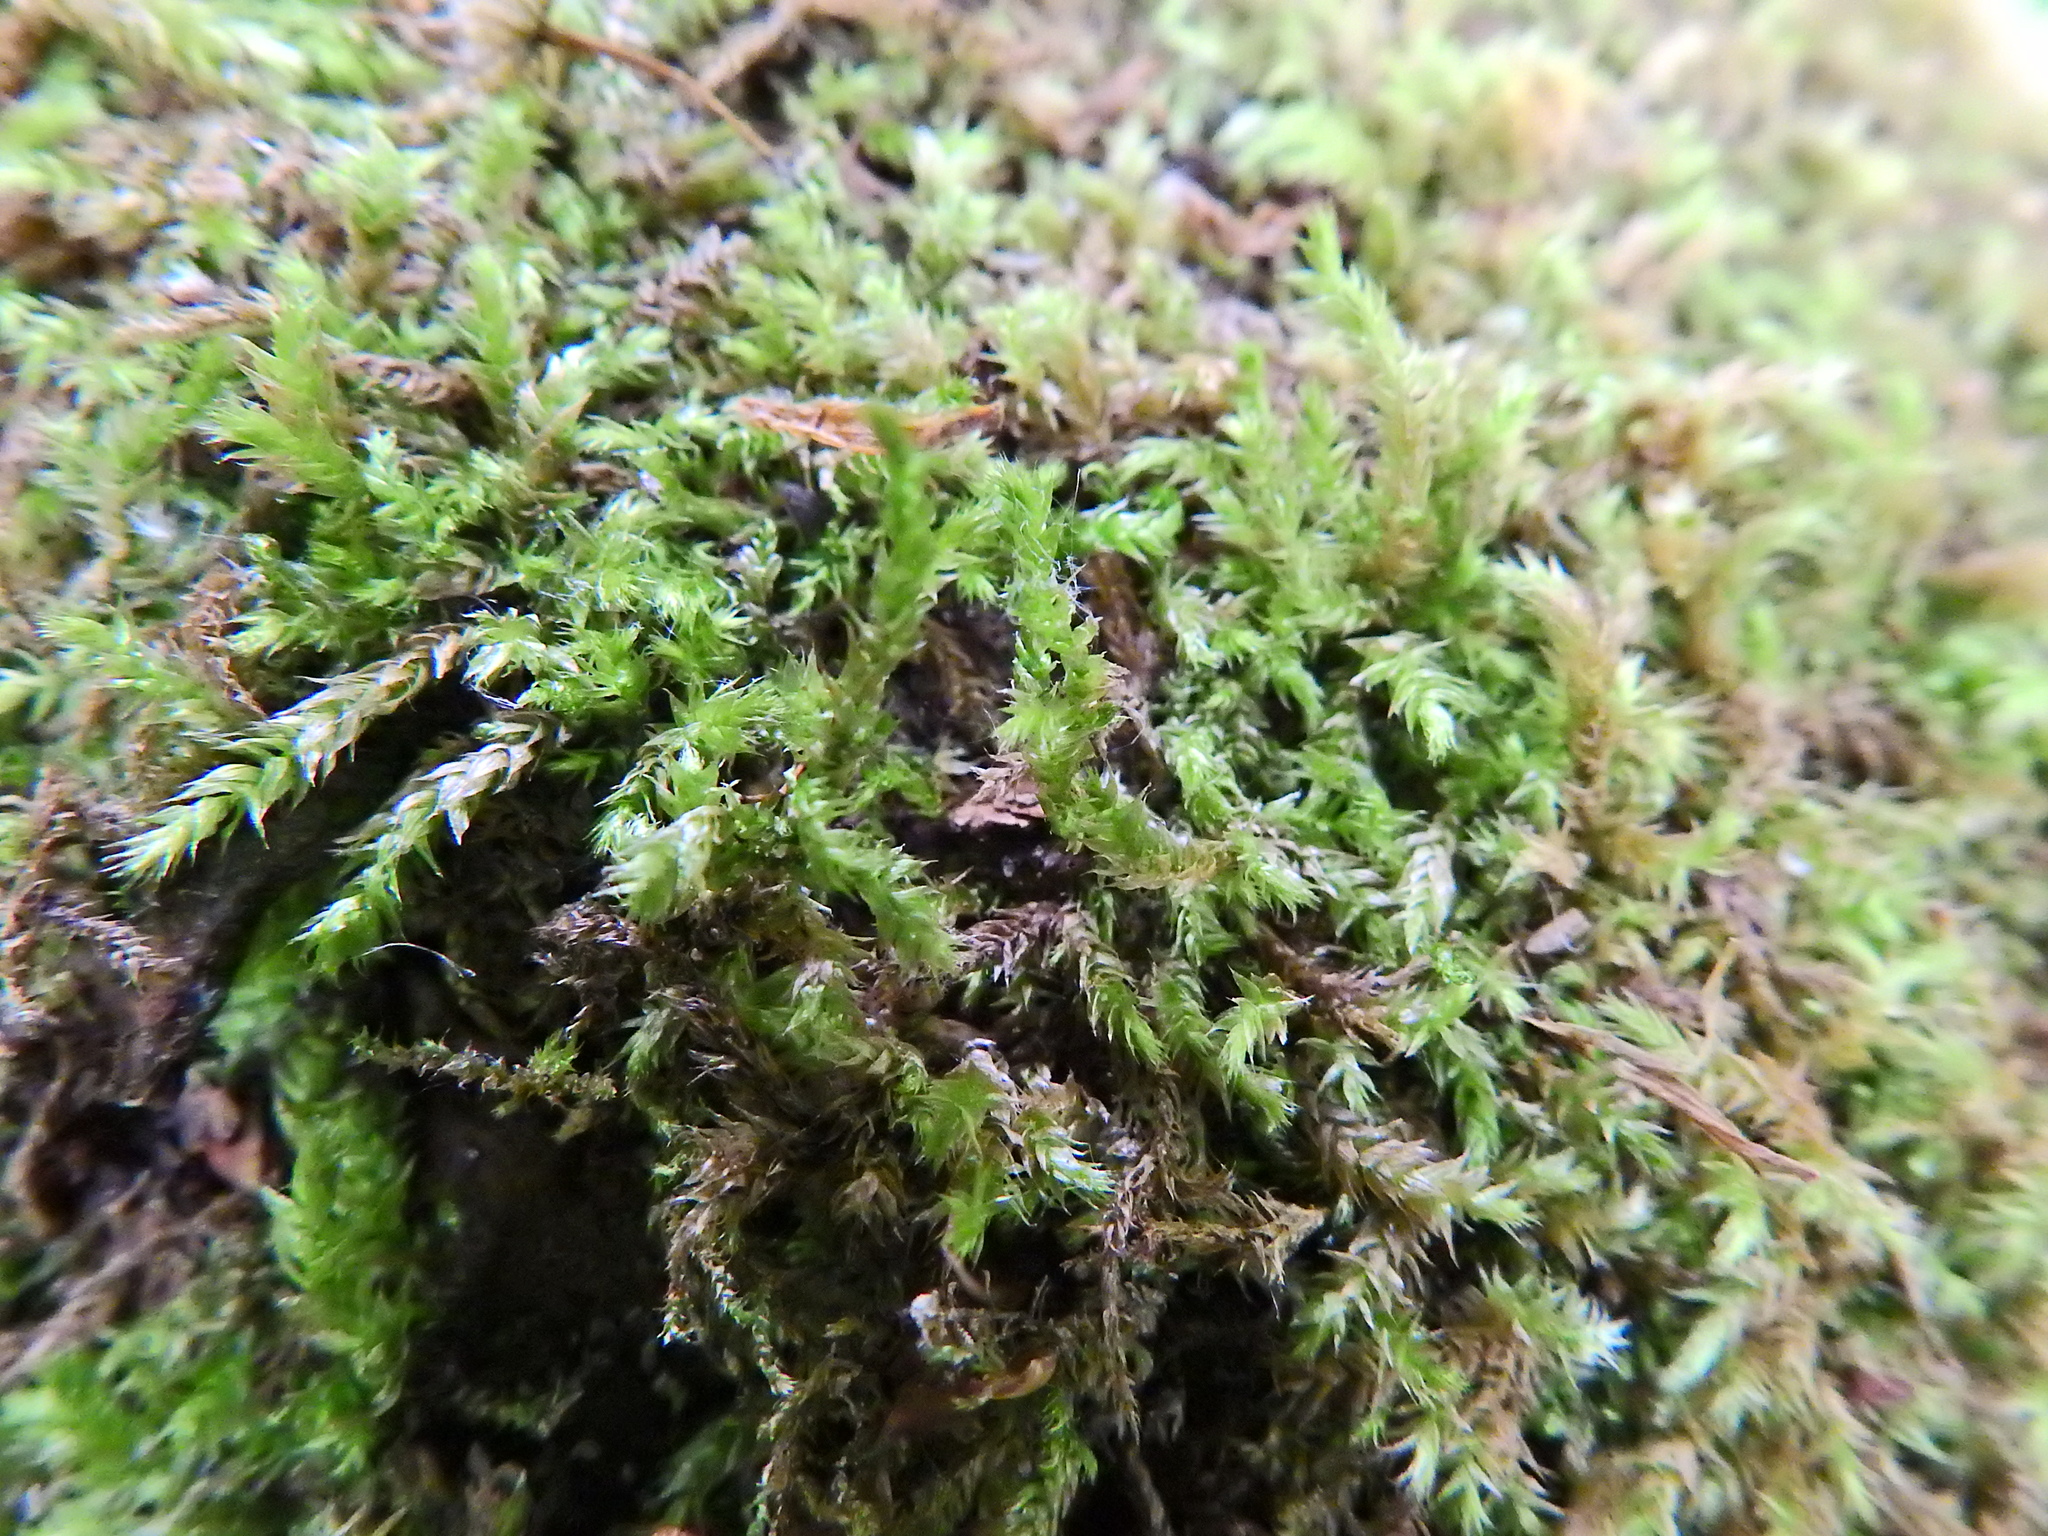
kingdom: Plantae
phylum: Bryophyta
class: Bryopsida
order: Hypnales
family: Brachytheciaceae
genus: Brachythecium
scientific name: Brachythecium rutabulum
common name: Rough-stalked feather-moss
